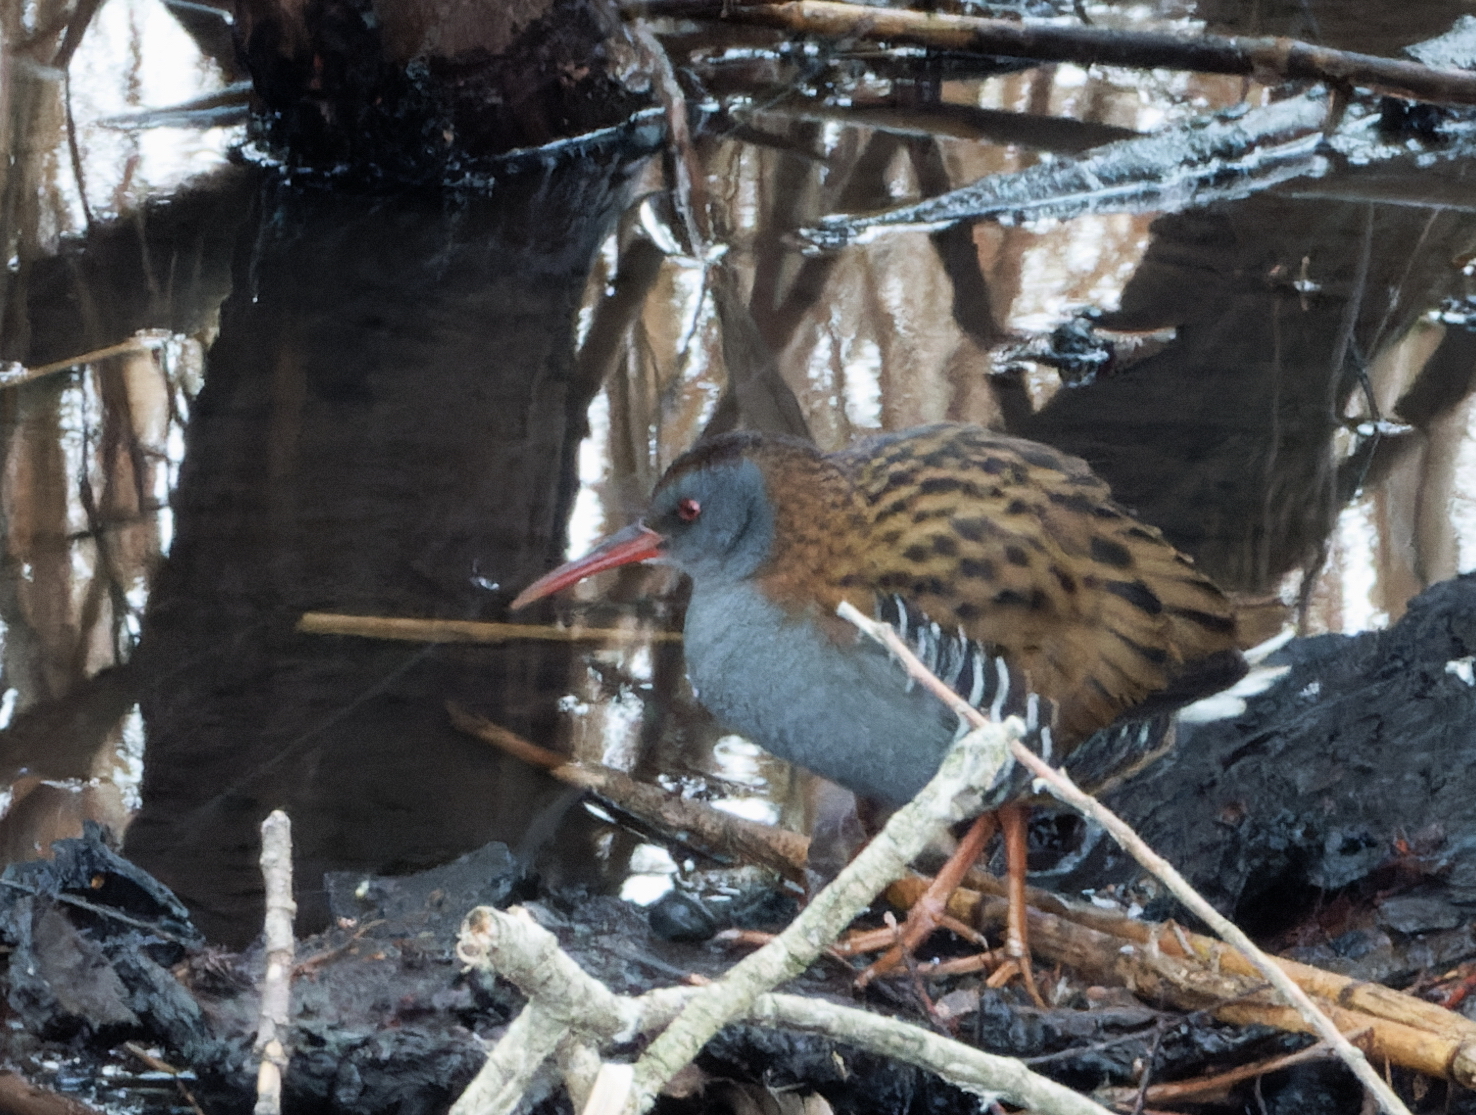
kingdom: Animalia
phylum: Chordata
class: Aves
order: Gruiformes
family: Rallidae
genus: Rallus
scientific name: Rallus aquaticus
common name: Water rail
